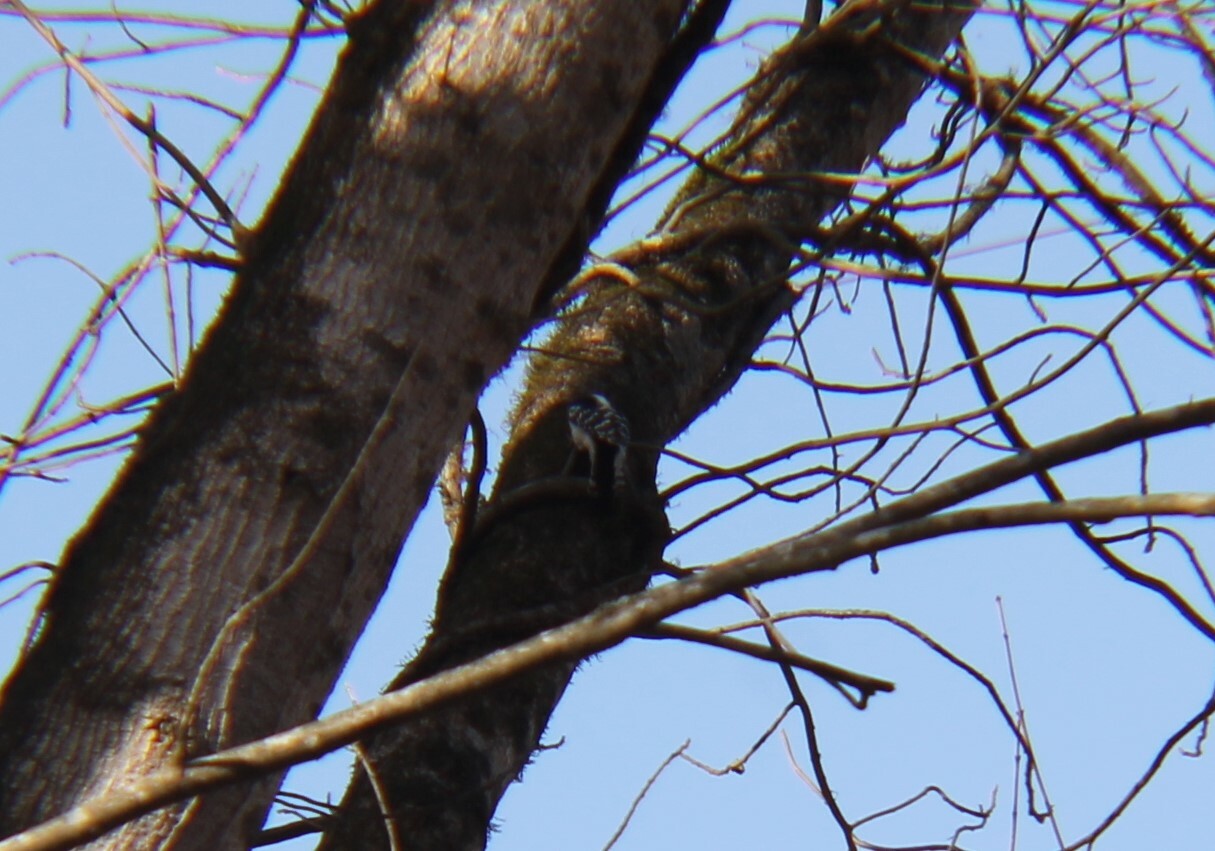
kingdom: Animalia
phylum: Chordata
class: Aves
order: Piciformes
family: Picidae
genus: Dryobates
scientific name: Dryobates pubescens
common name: Downy woodpecker
